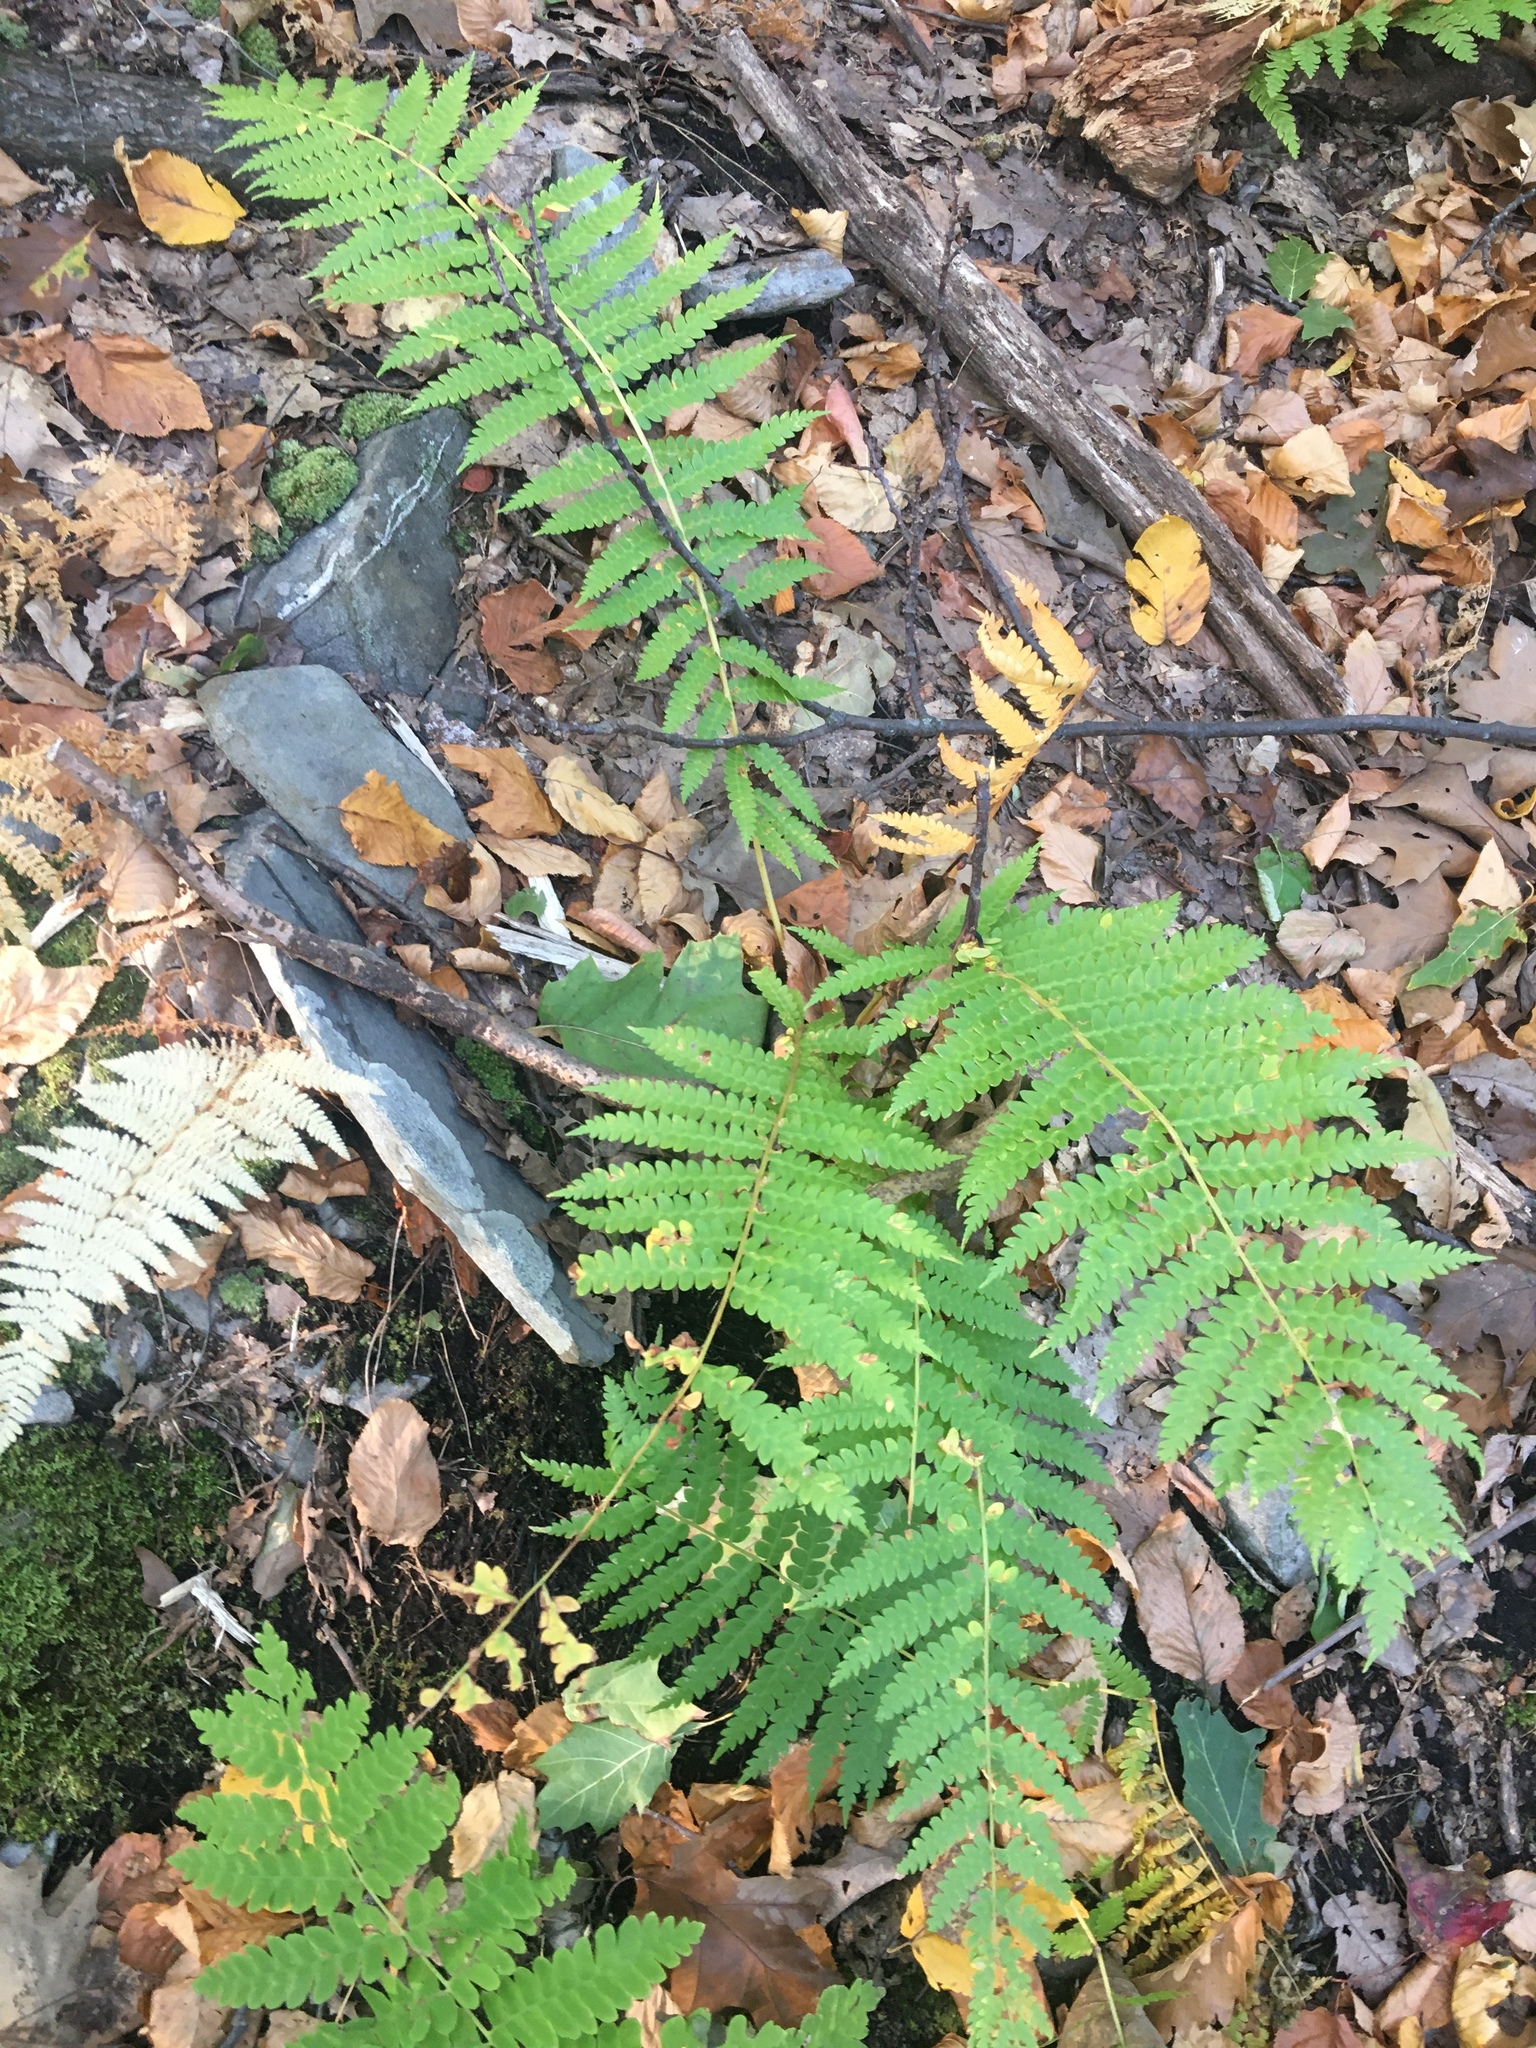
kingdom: Plantae
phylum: Tracheophyta
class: Polypodiopsida
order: Osmundales
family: Osmundaceae
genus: Claytosmunda
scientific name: Claytosmunda claytoniana
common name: Clayton's fern
